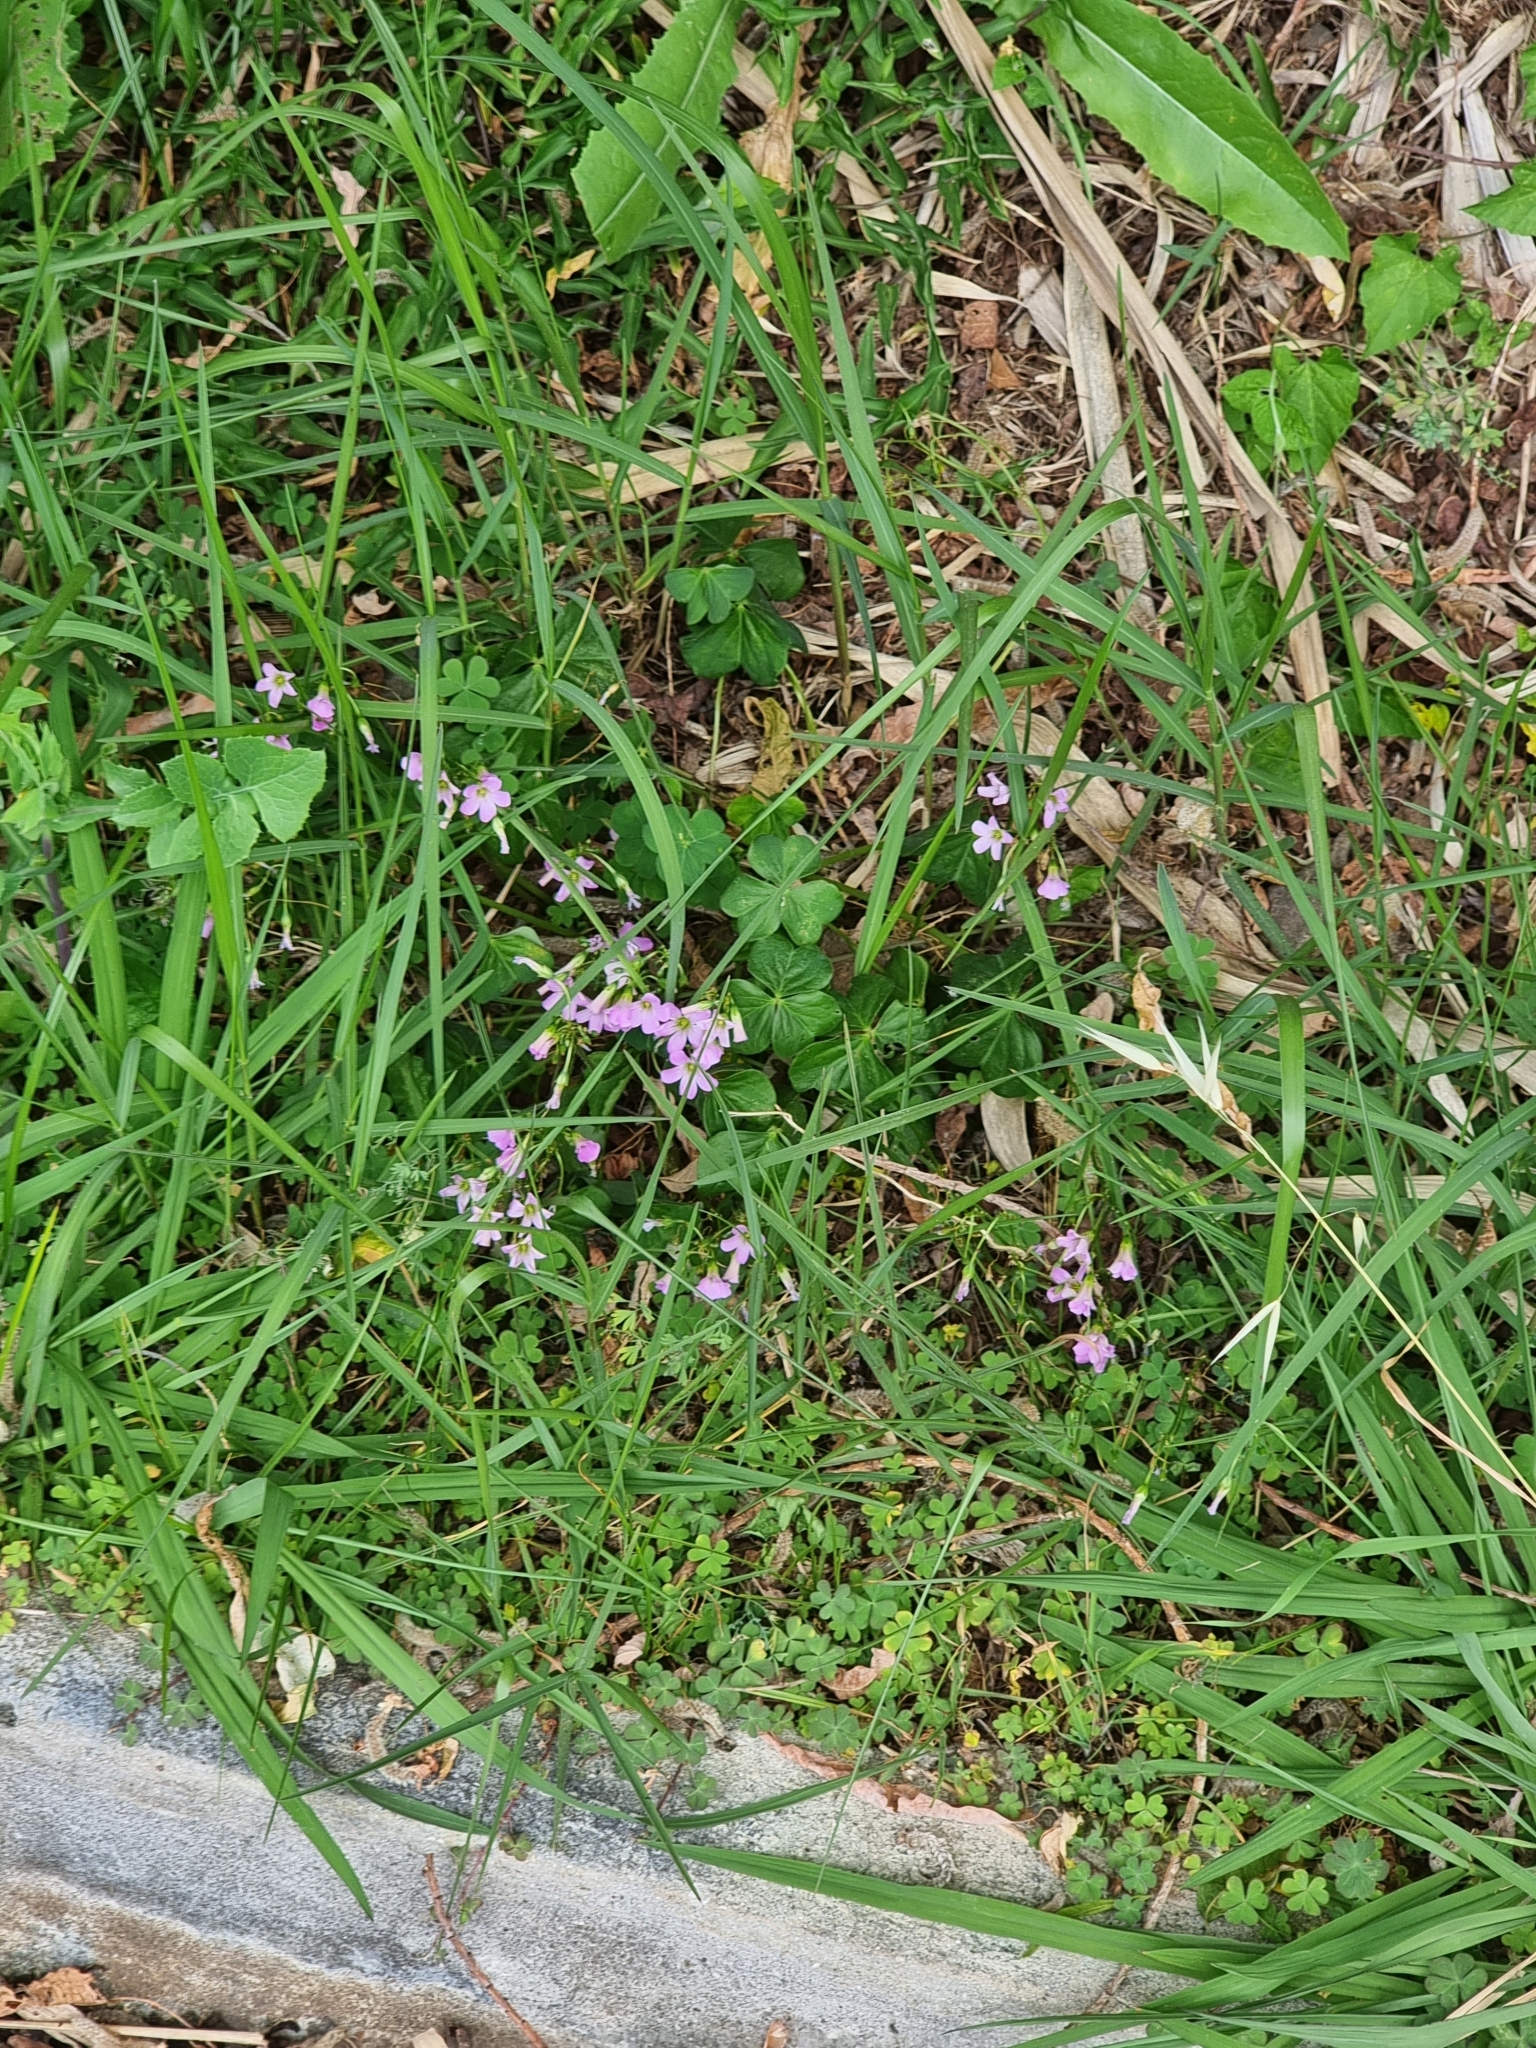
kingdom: Plantae
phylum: Tracheophyta
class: Magnoliopsida
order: Oxalidales
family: Oxalidaceae
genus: Oxalis
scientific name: Oxalis debilis
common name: Large-flowered pink-sorrel
